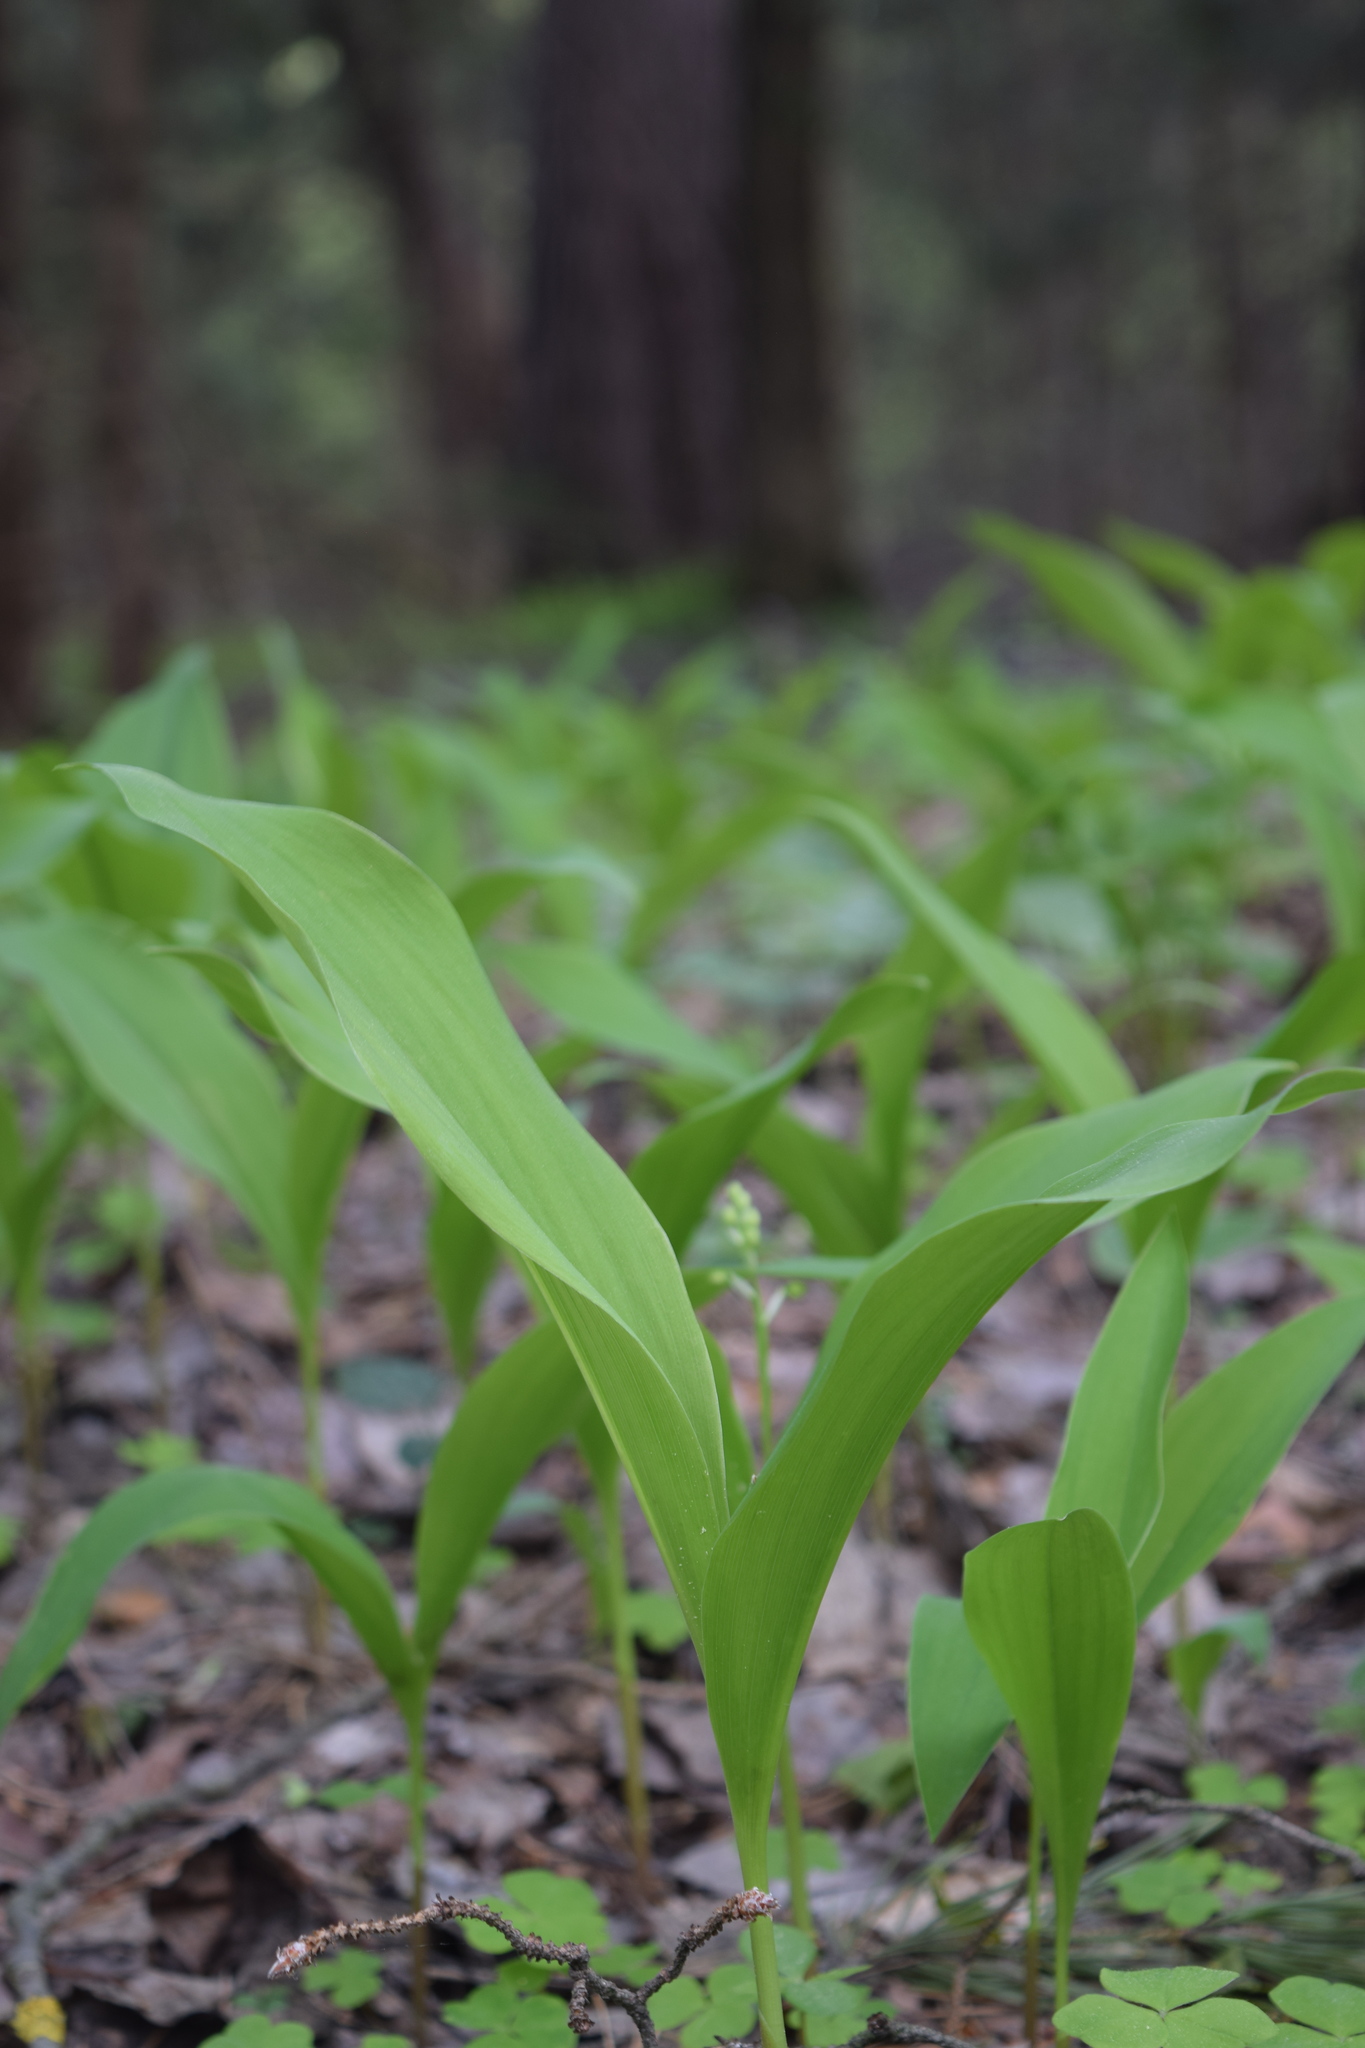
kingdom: Plantae
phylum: Tracheophyta
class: Liliopsida
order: Asparagales
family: Asparagaceae
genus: Convallaria
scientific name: Convallaria majalis
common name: Lily-of-the-valley
